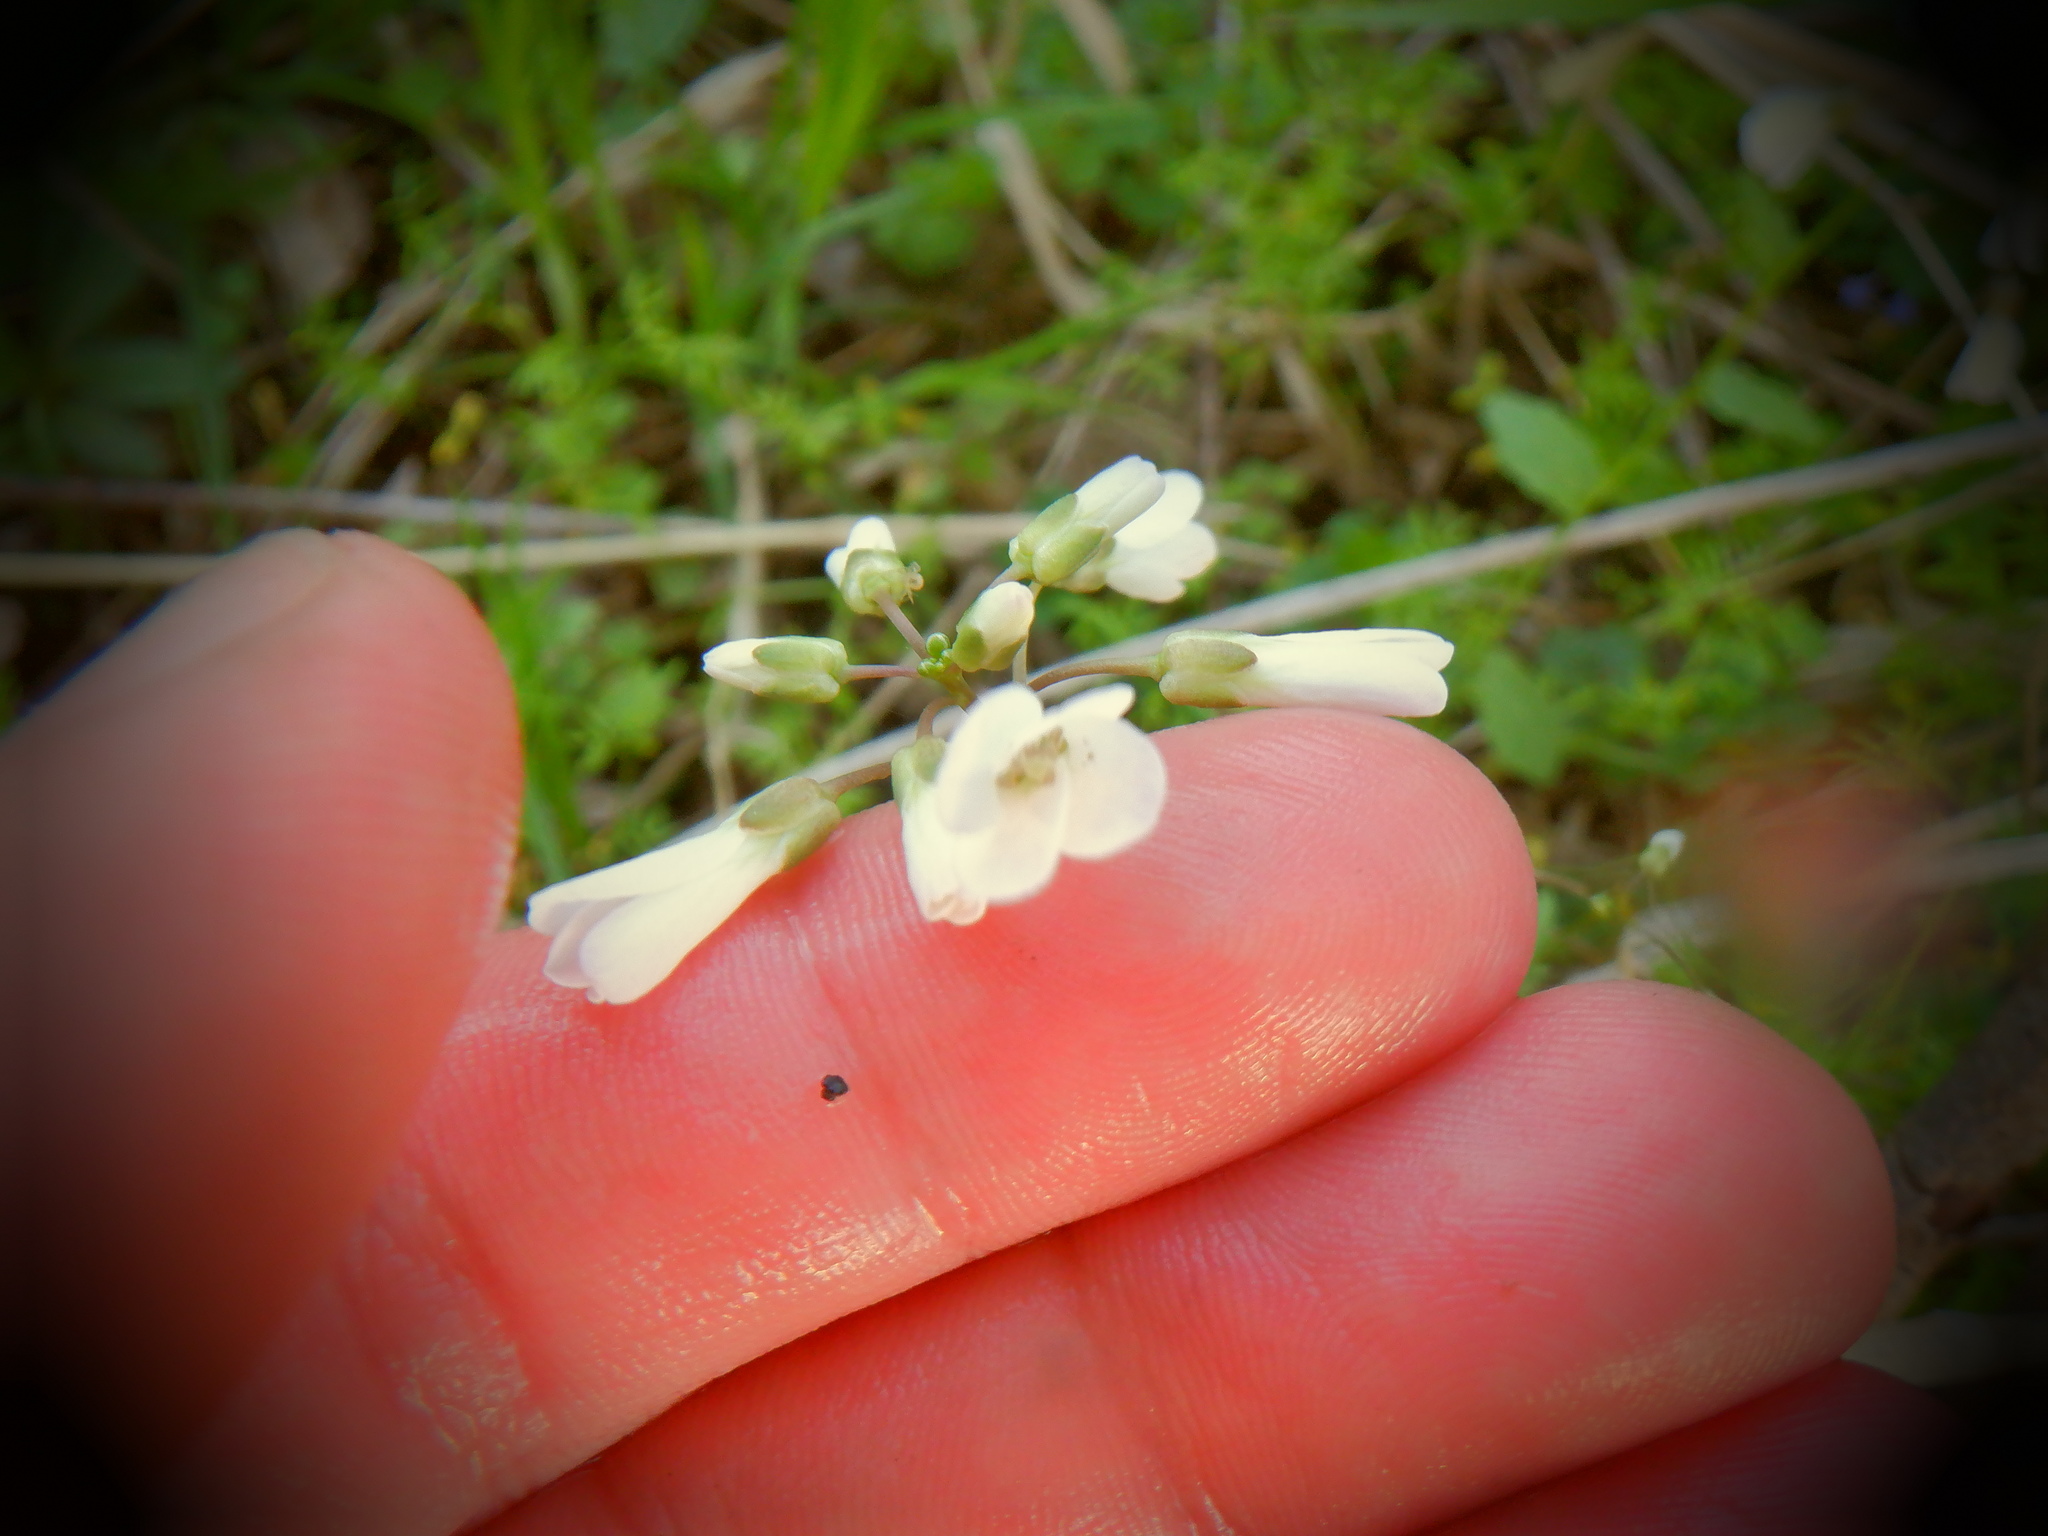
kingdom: Plantae
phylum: Tracheophyta
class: Magnoliopsida
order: Brassicales
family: Brassicaceae
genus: Cardamine
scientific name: Cardamine bulbosa
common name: Spring cress
